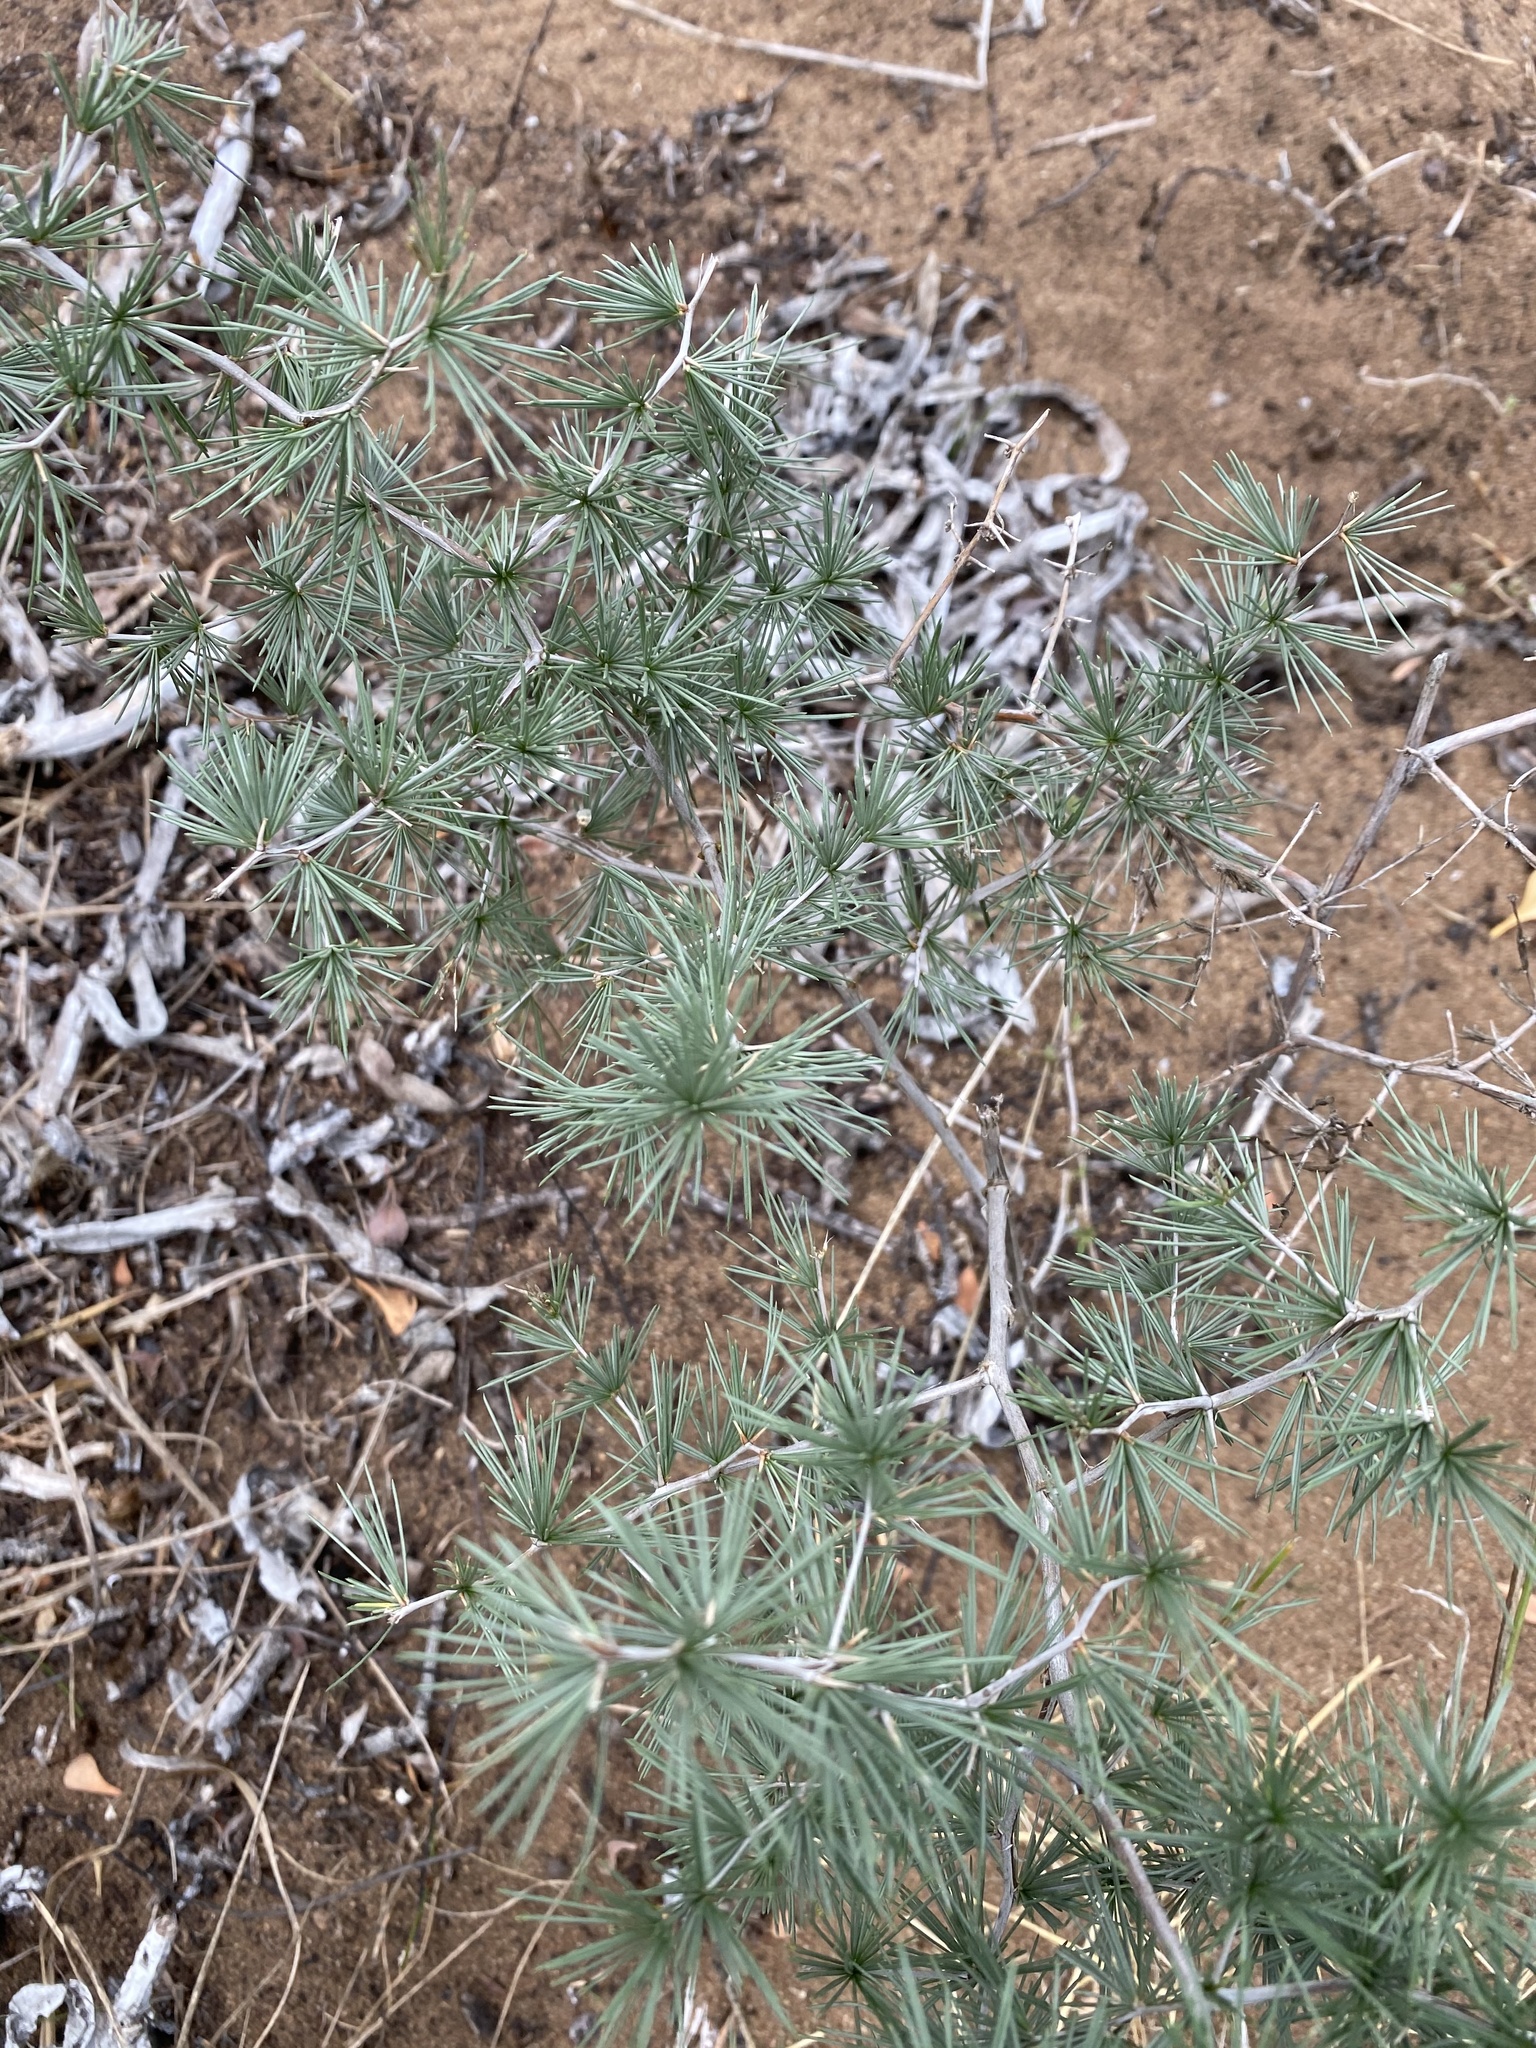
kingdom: Plantae
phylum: Tracheophyta
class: Liliopsida
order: Asparagales
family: Asparagaceae
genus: Asparagus
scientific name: Asparagus retrofractus
